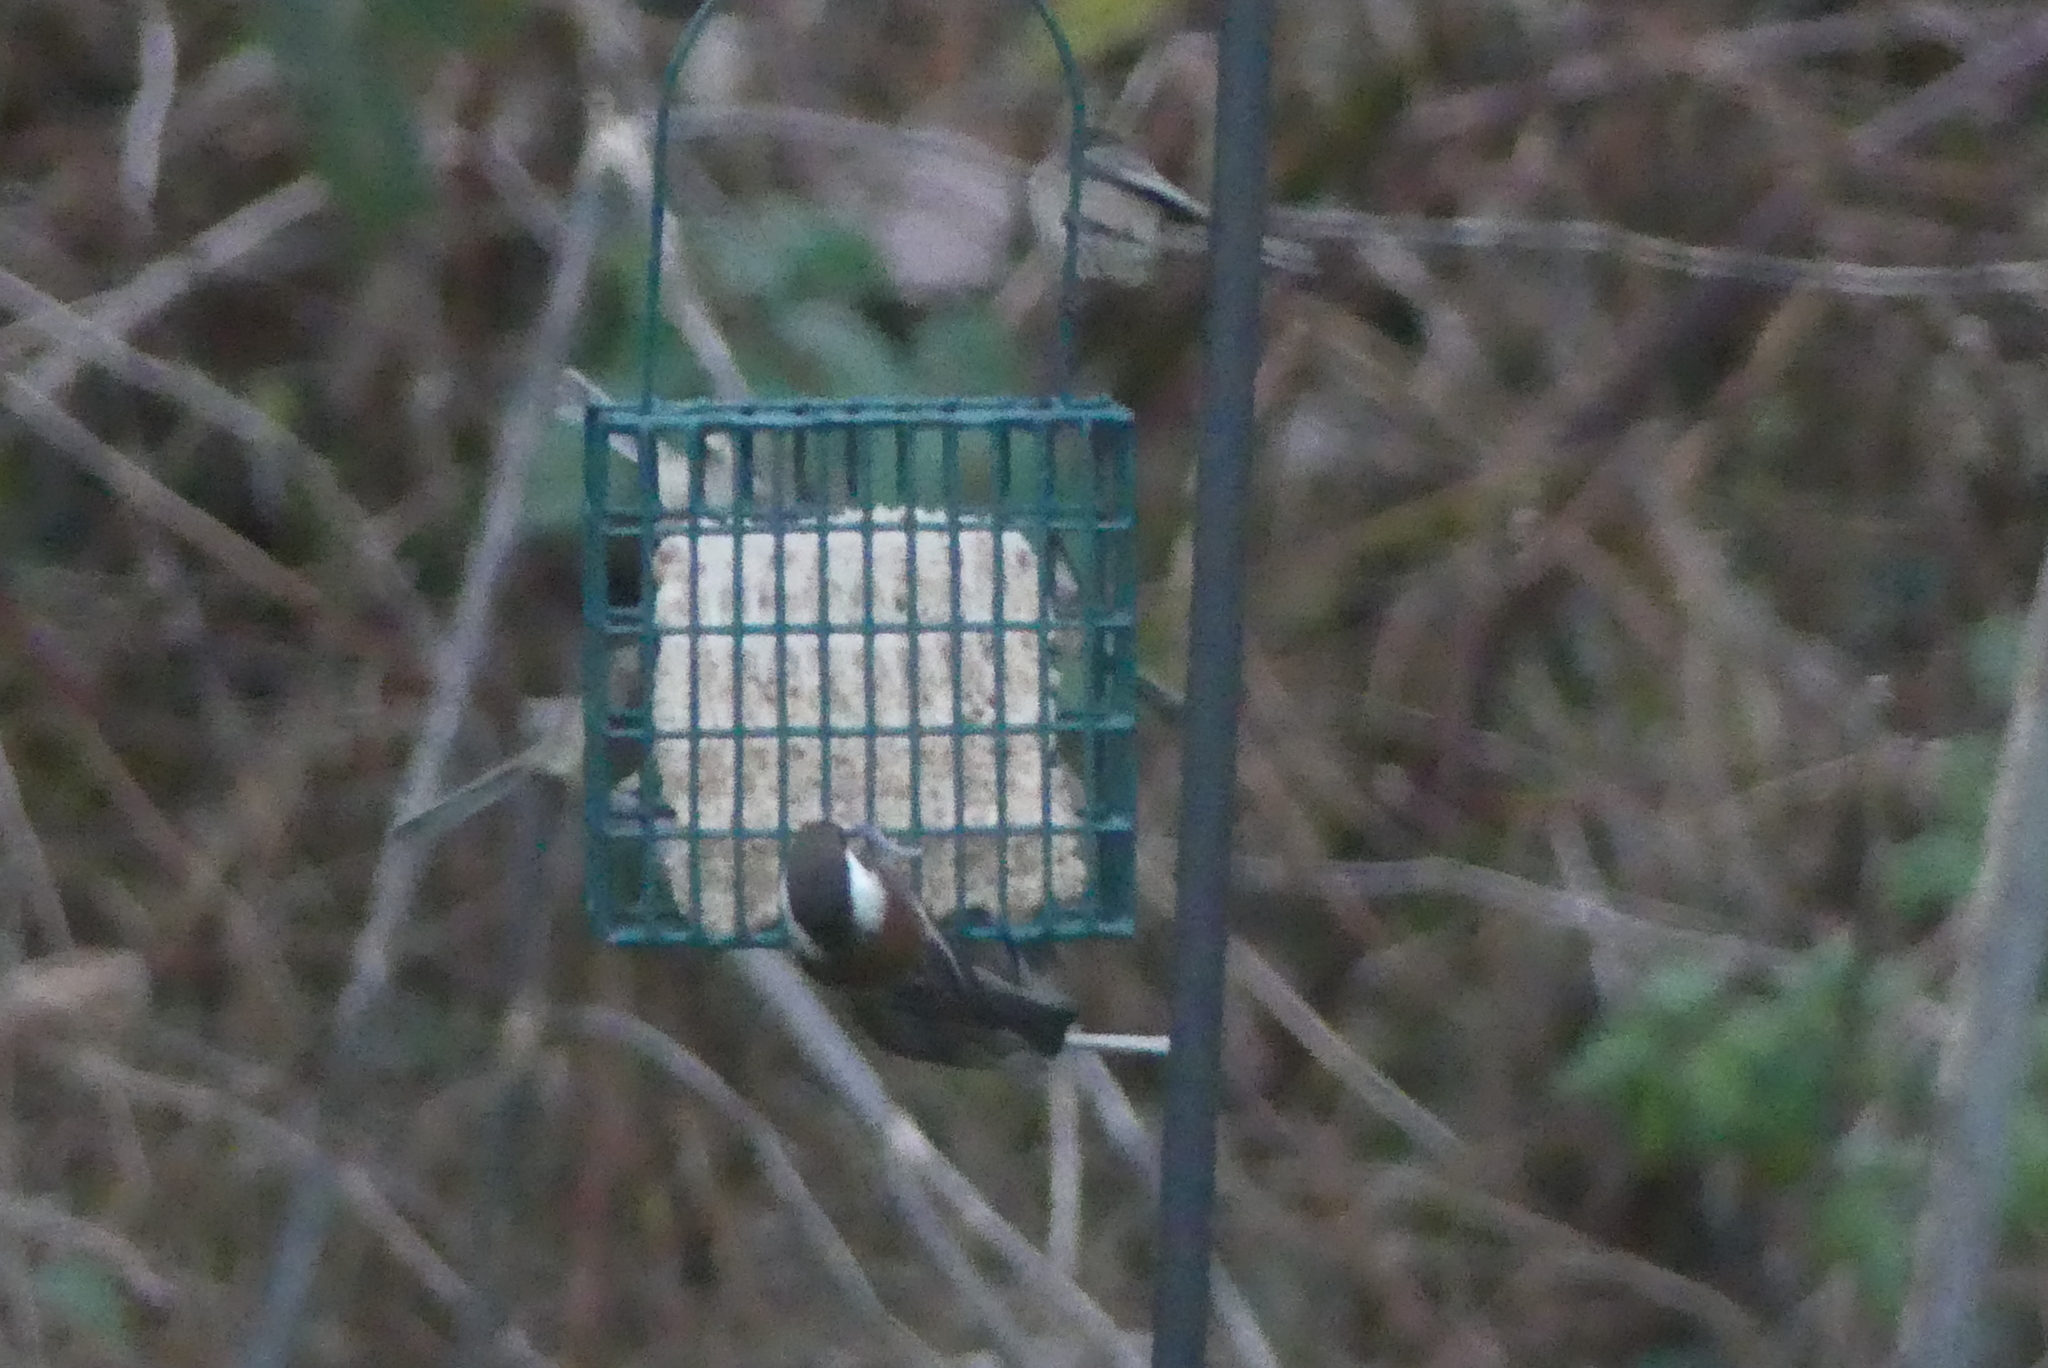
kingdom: Animalia
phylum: Chordata
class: Aves
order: Passeriformes
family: Paridae
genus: Poecile
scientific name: Poecile rufescens
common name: Chestnut-backed chickadee
